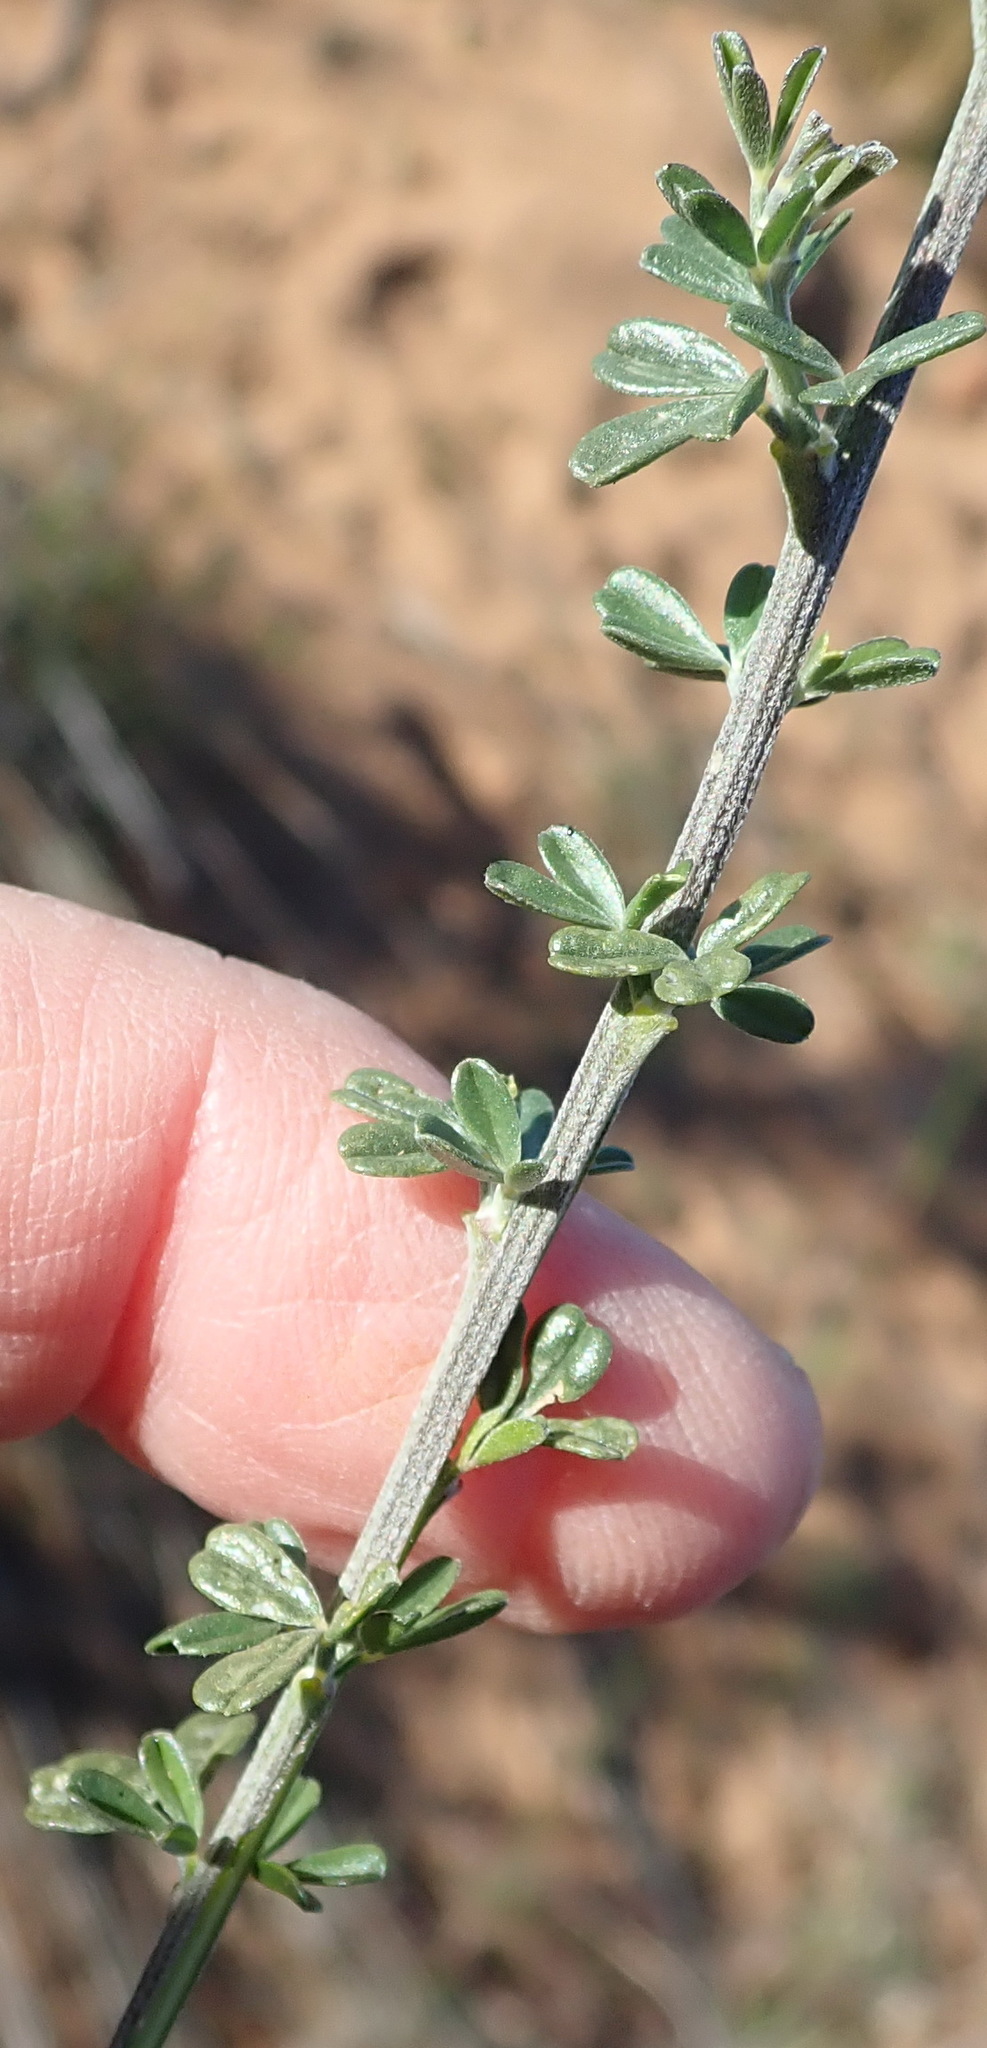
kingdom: Plantae
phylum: Tracheophyta
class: Magnoliopsida
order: Fabales
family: Fabaceae
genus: Wiborgia
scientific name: Wiborgia obcordata
